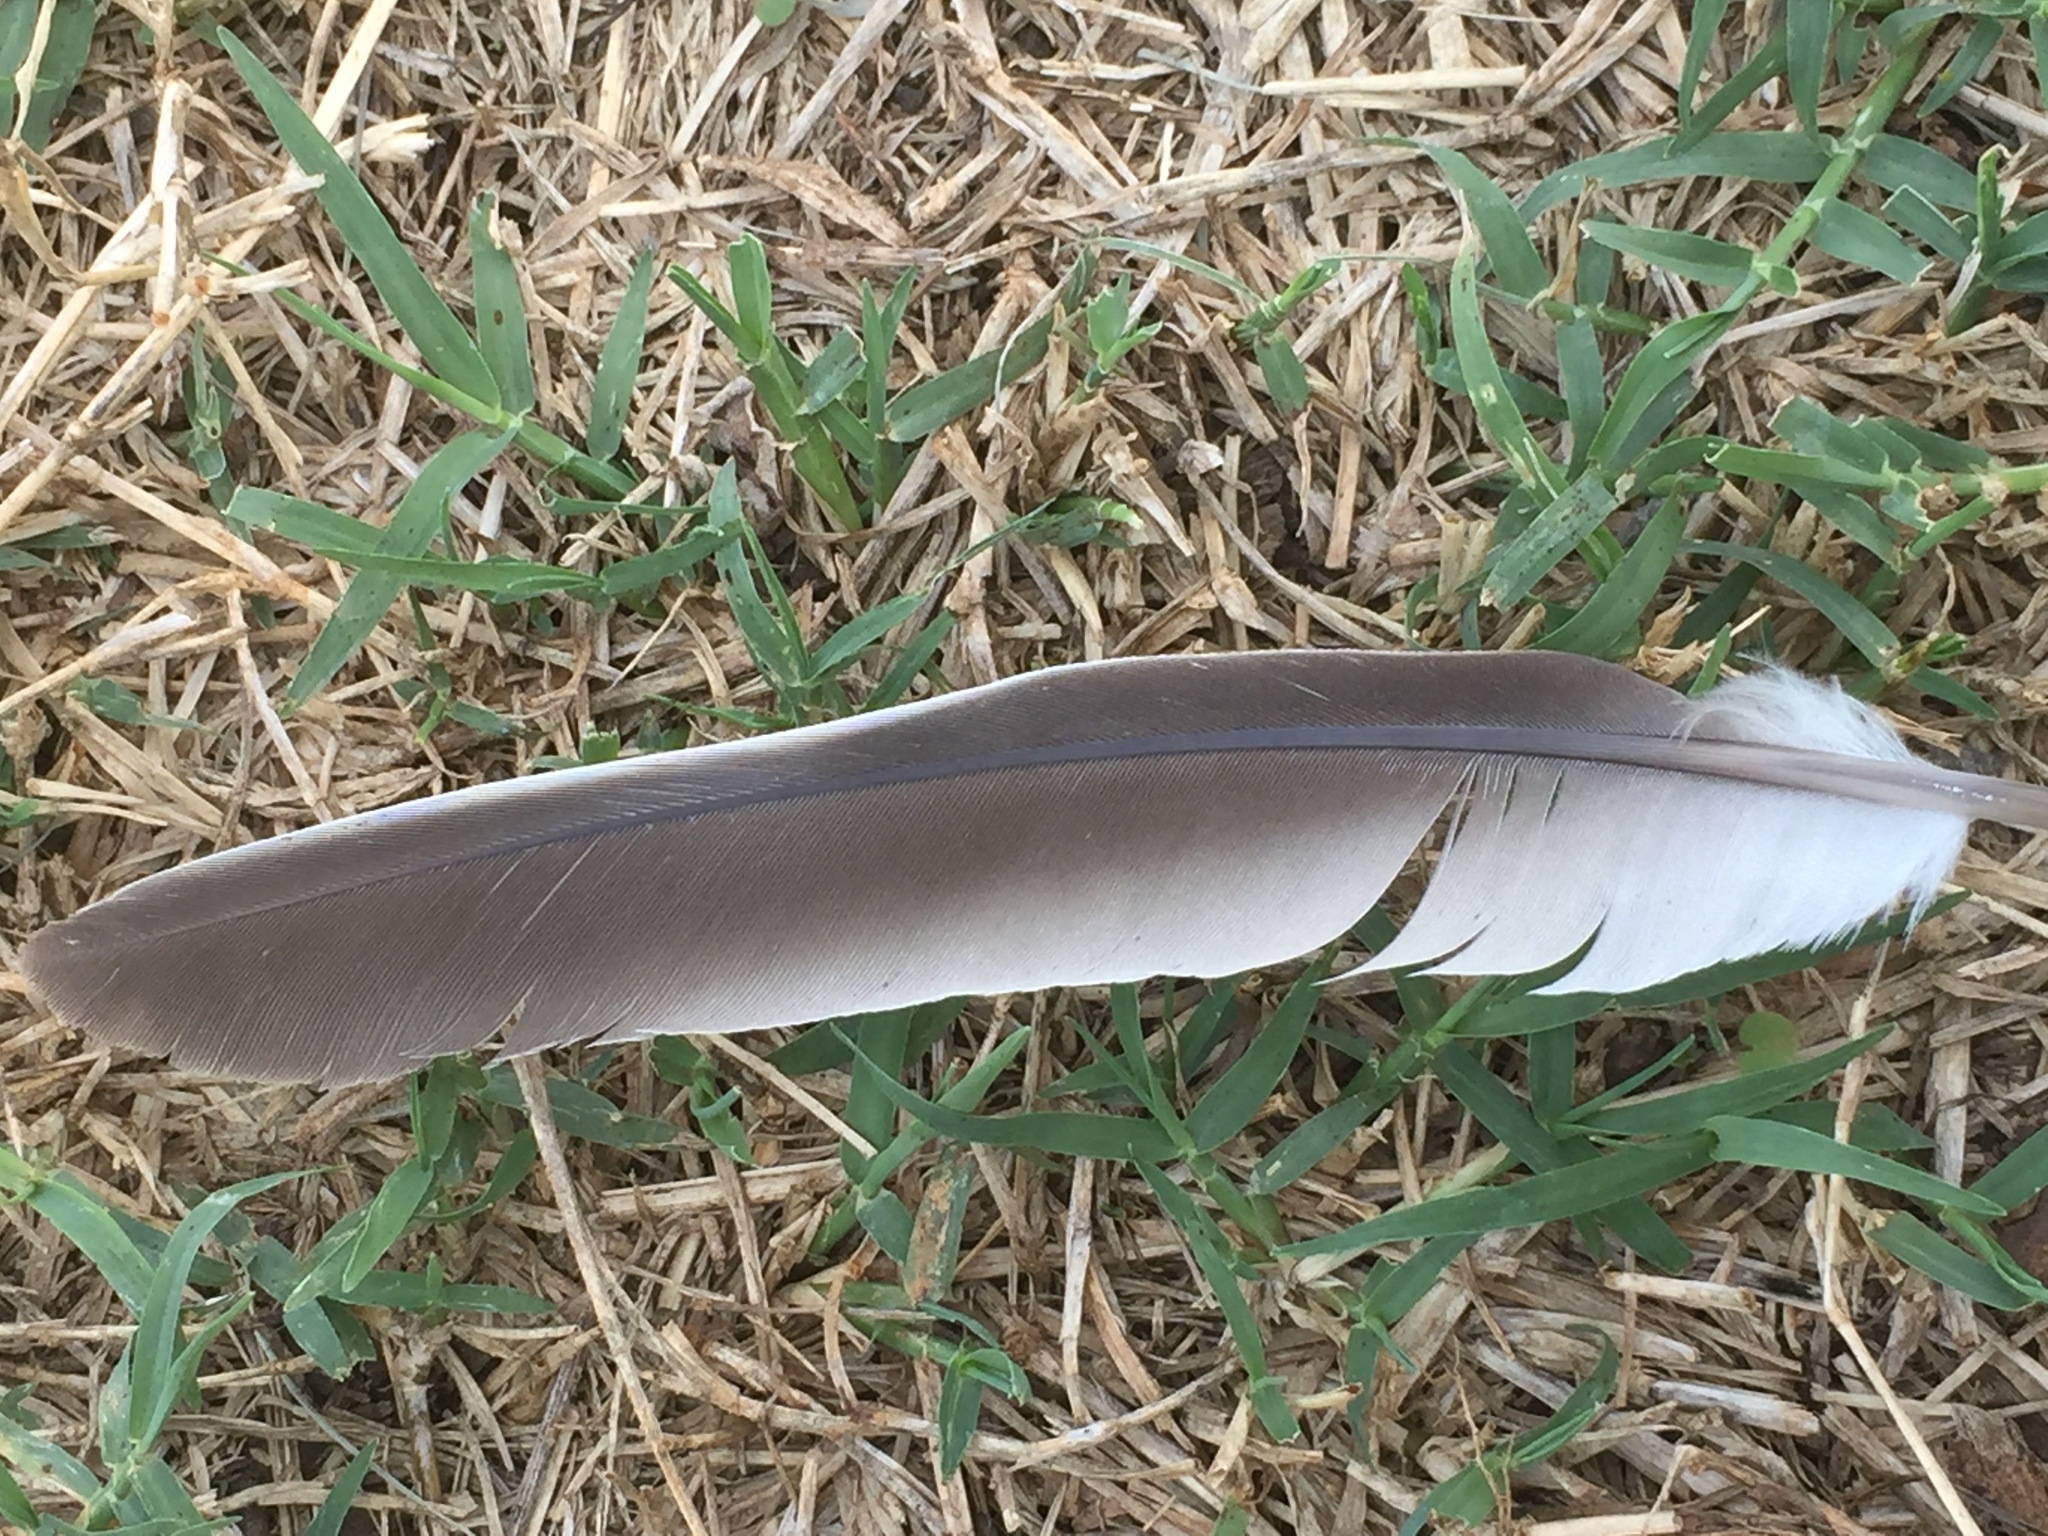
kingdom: Animalia
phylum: Chordata
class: Aves
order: Columbiformes
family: Columbidae
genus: Streptopelia
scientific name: Streptopelia decaocto
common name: Eurasian collared dove
